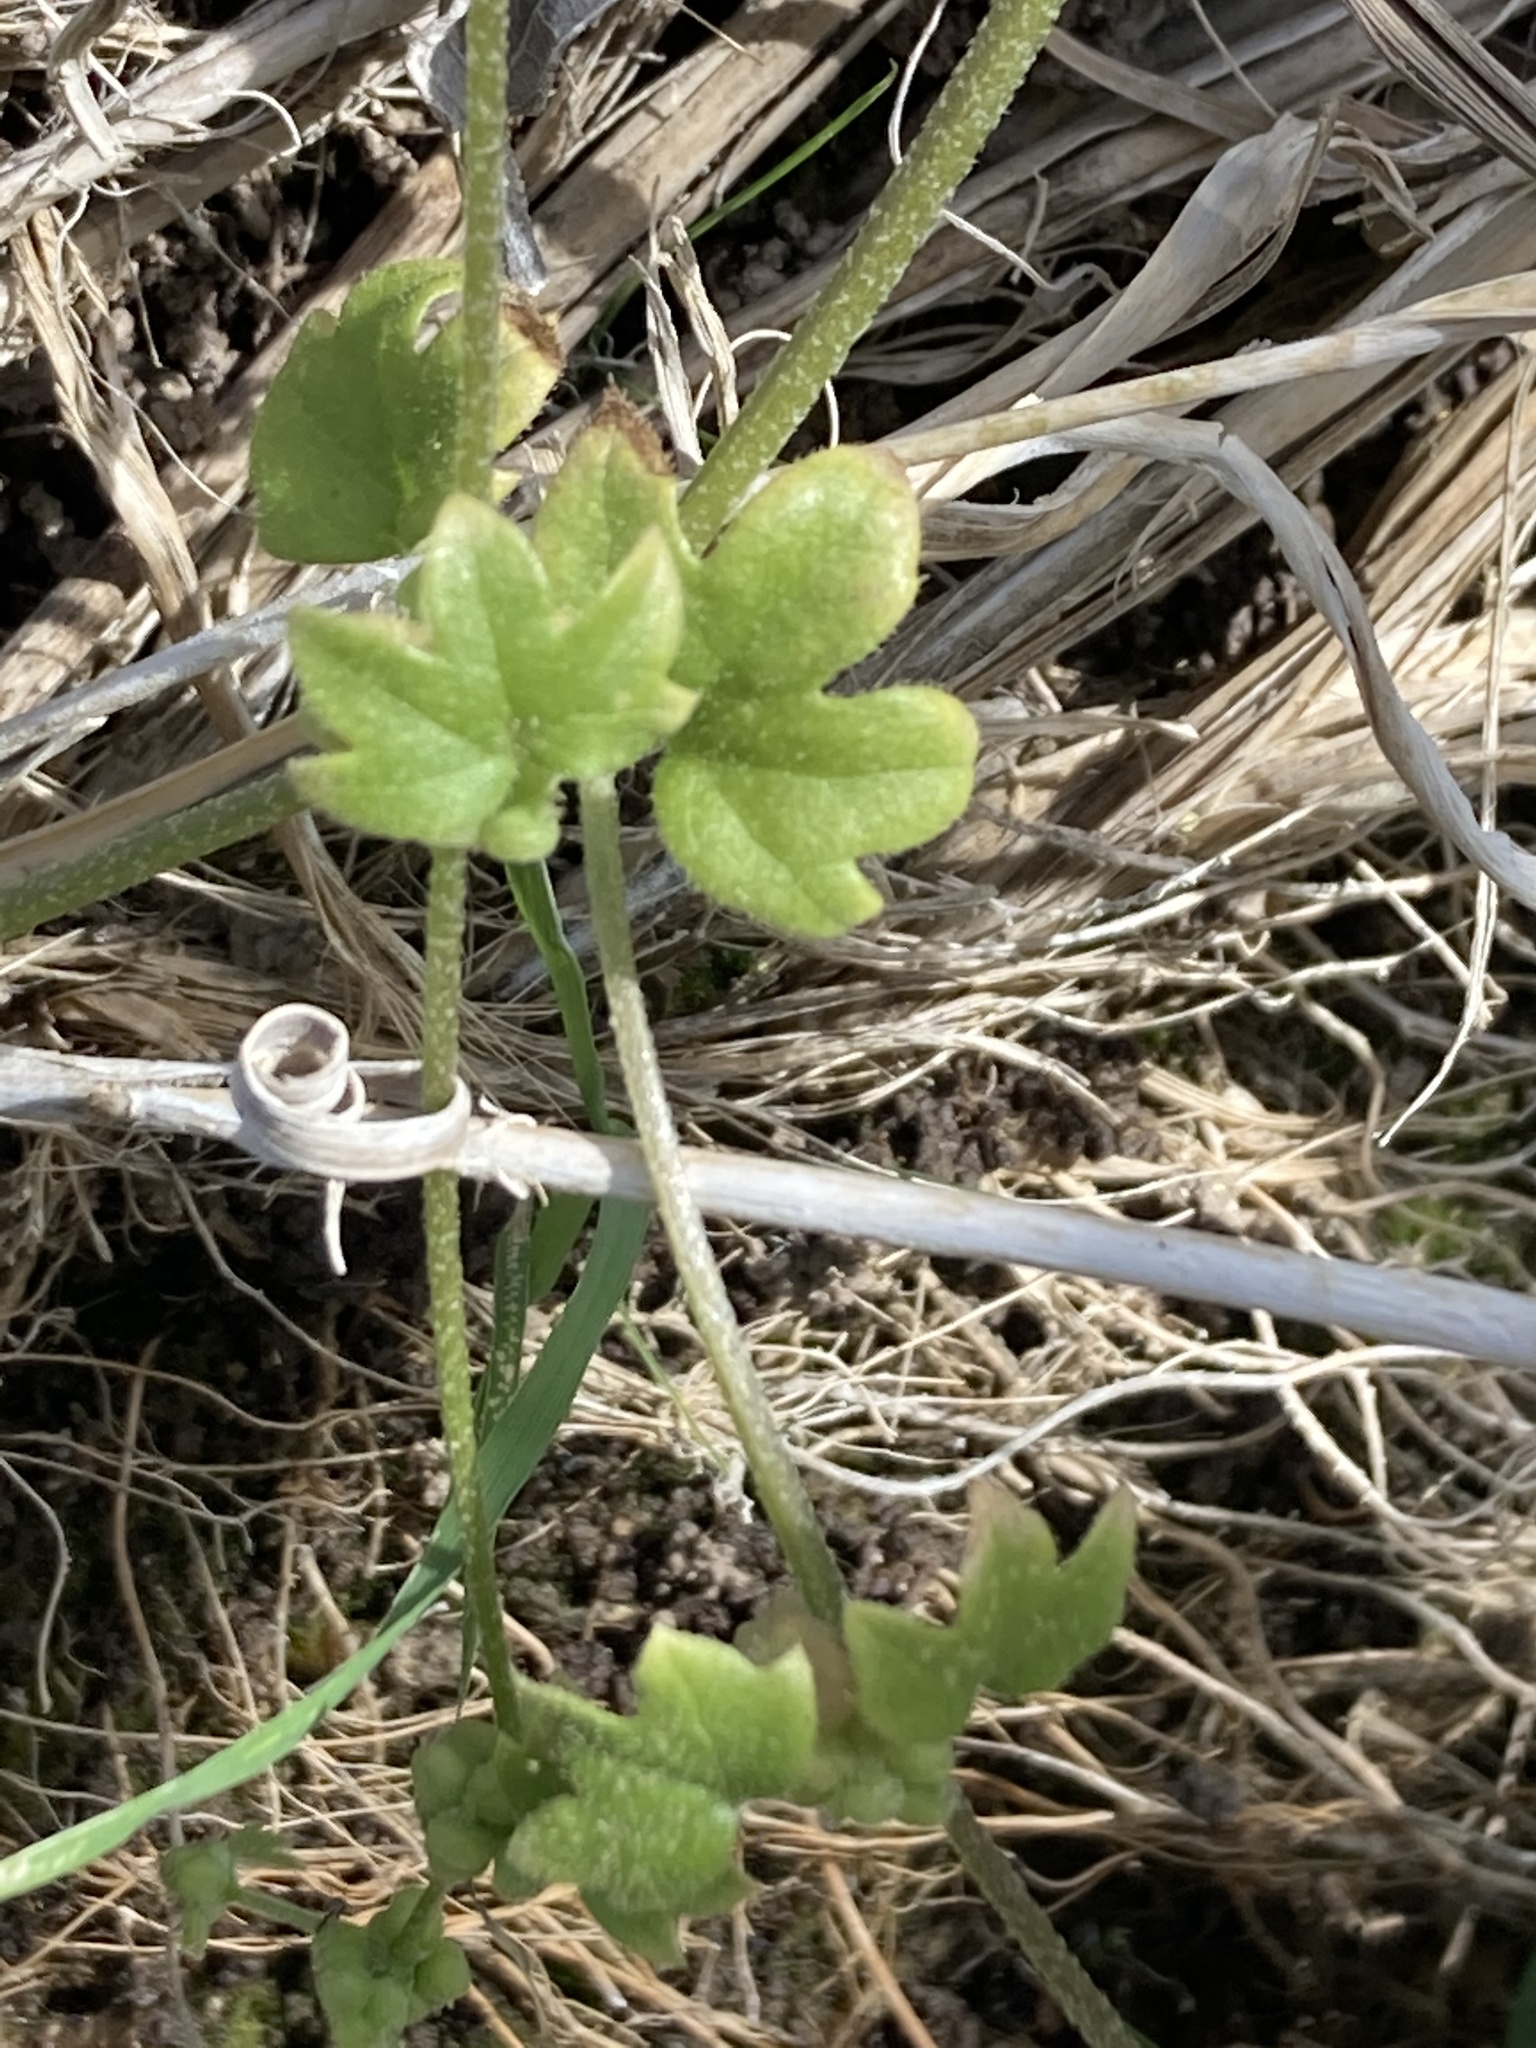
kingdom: Plantae
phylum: Tracheophyta
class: Magnoliopsida
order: Apiales
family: Apiaceae
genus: Bowlesia
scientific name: Bowlesia incana
